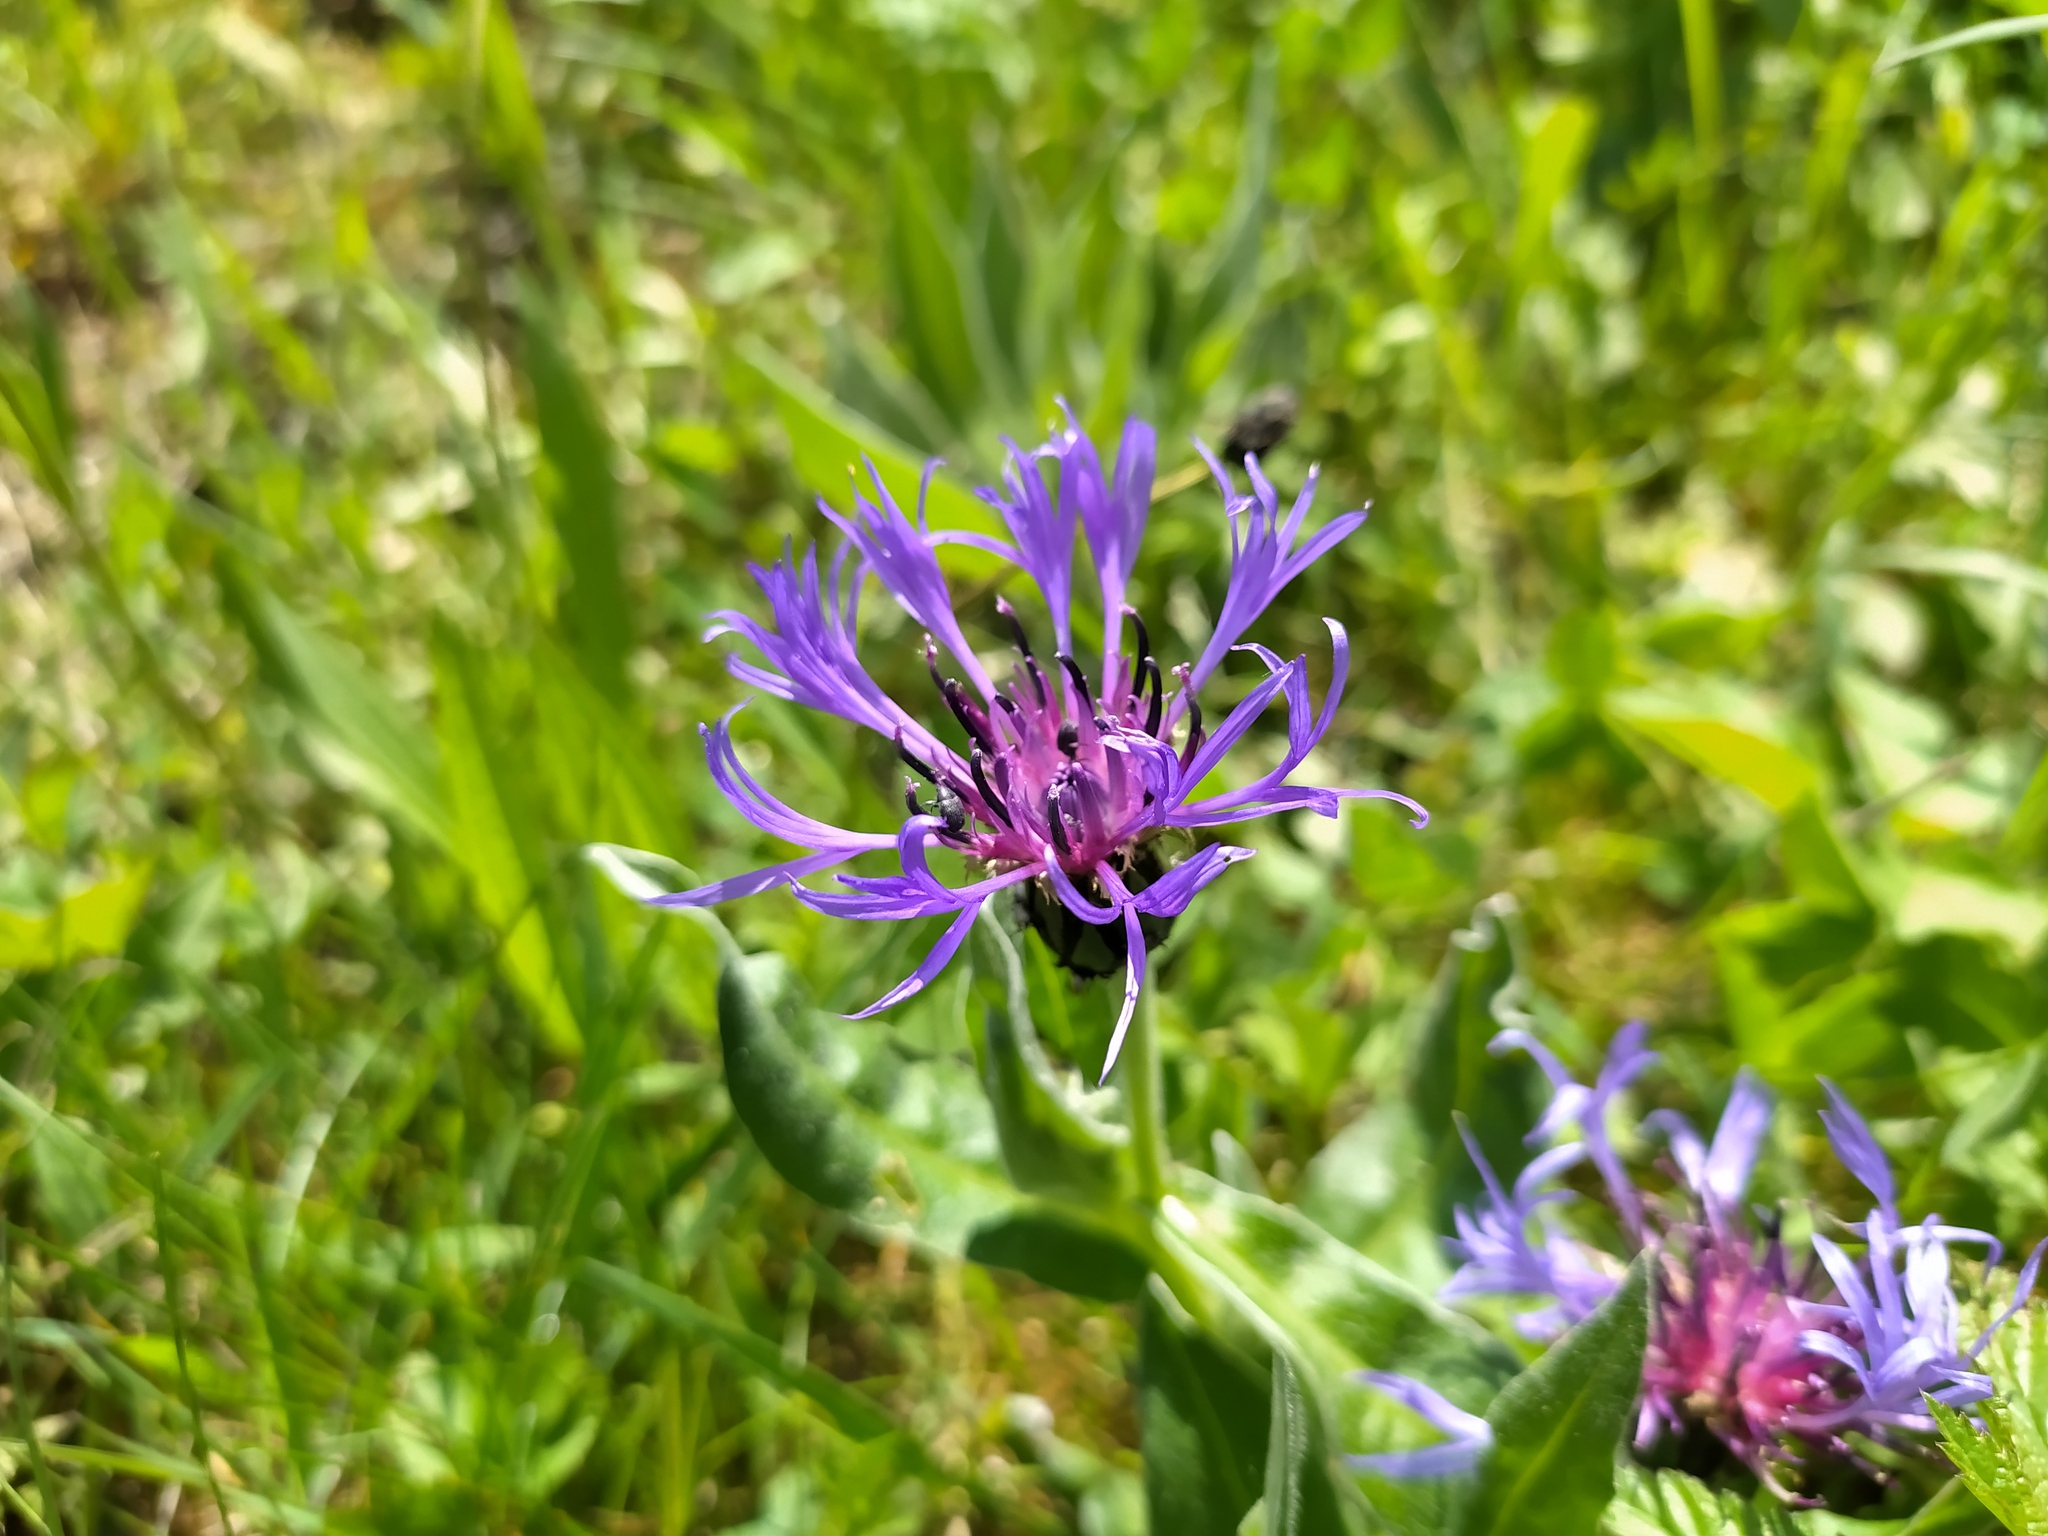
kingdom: Plantae
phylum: Tracheophyta
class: Magnoliopsida
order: Asterales
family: Asteraceae
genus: Centaurea
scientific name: Centaurea montana
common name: Perennial cornflower
